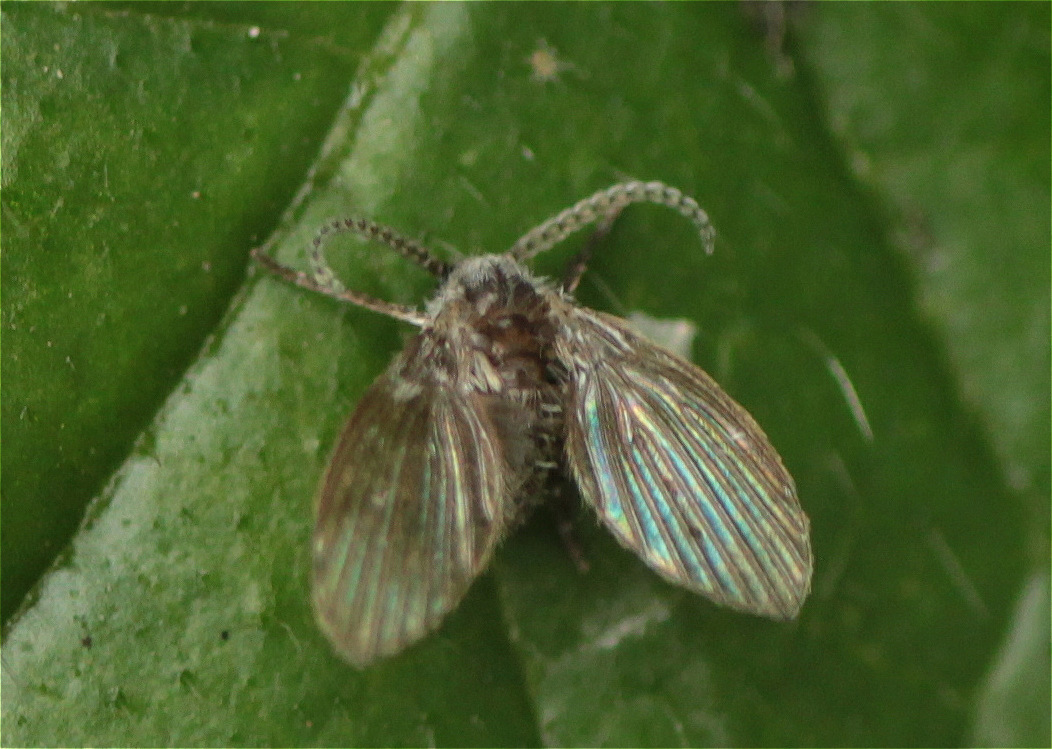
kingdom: Animalia
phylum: Arthropoda
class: Insecta
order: Diptera
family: Psychodidae
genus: Clogmia
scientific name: Clogmia albipunctatus
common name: White-spotted moth fly
